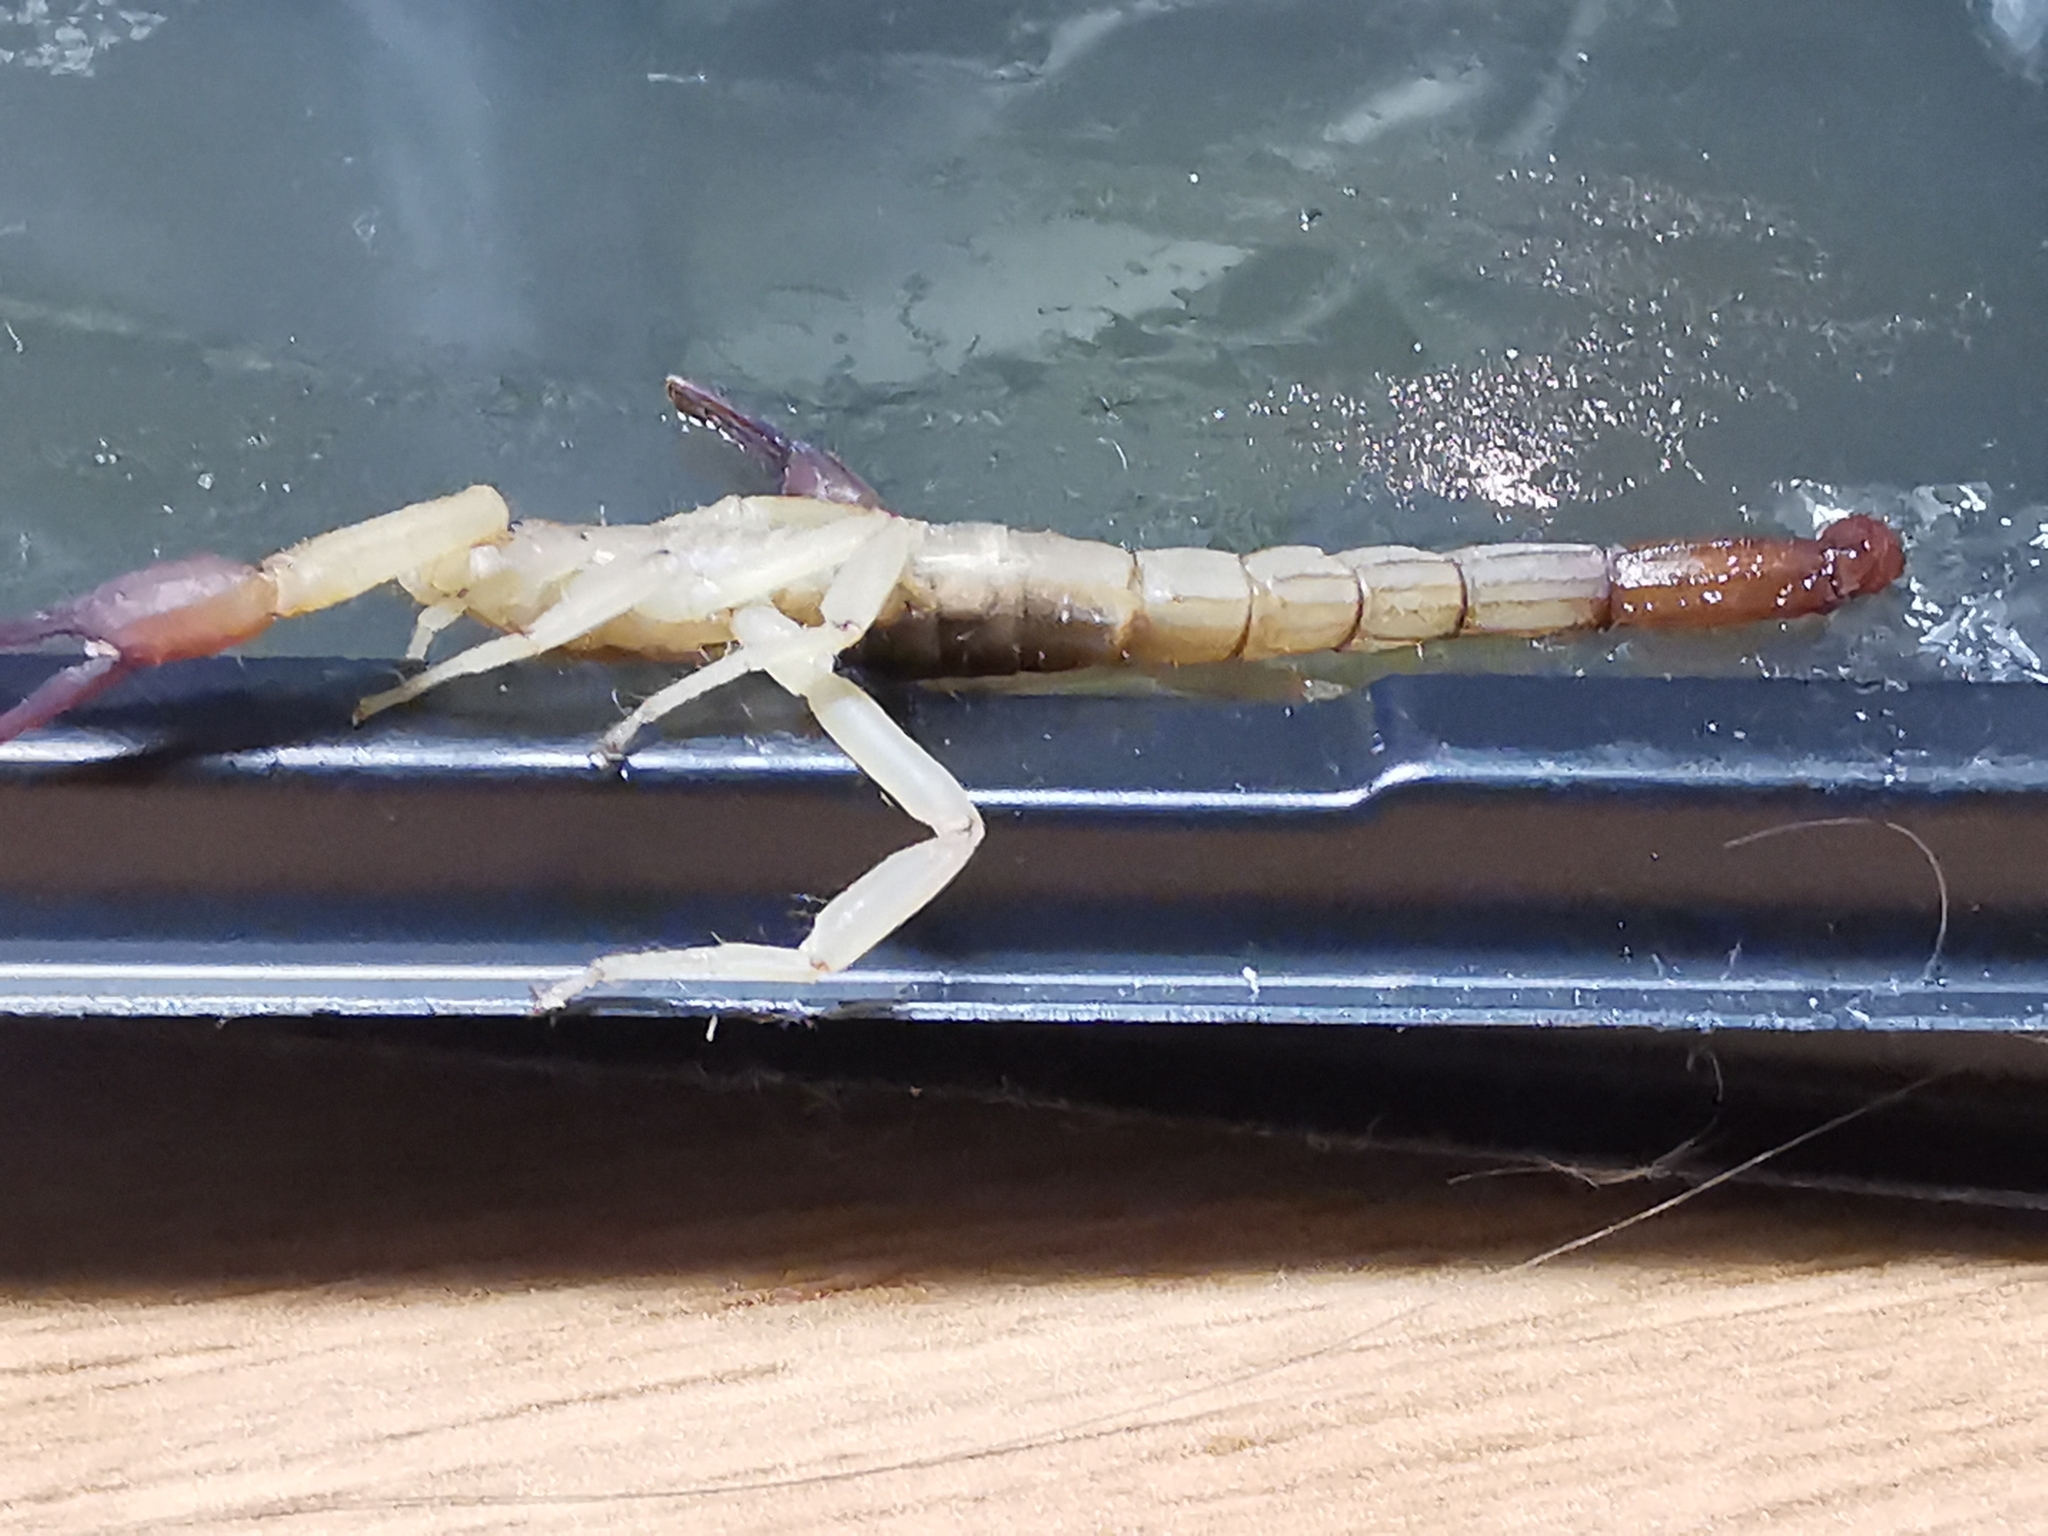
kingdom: Animalia
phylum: Arthropoda
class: Arachnida
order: Scorpiones
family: Vaejovidae
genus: Franckeus
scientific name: Franckeus rubrimanus
